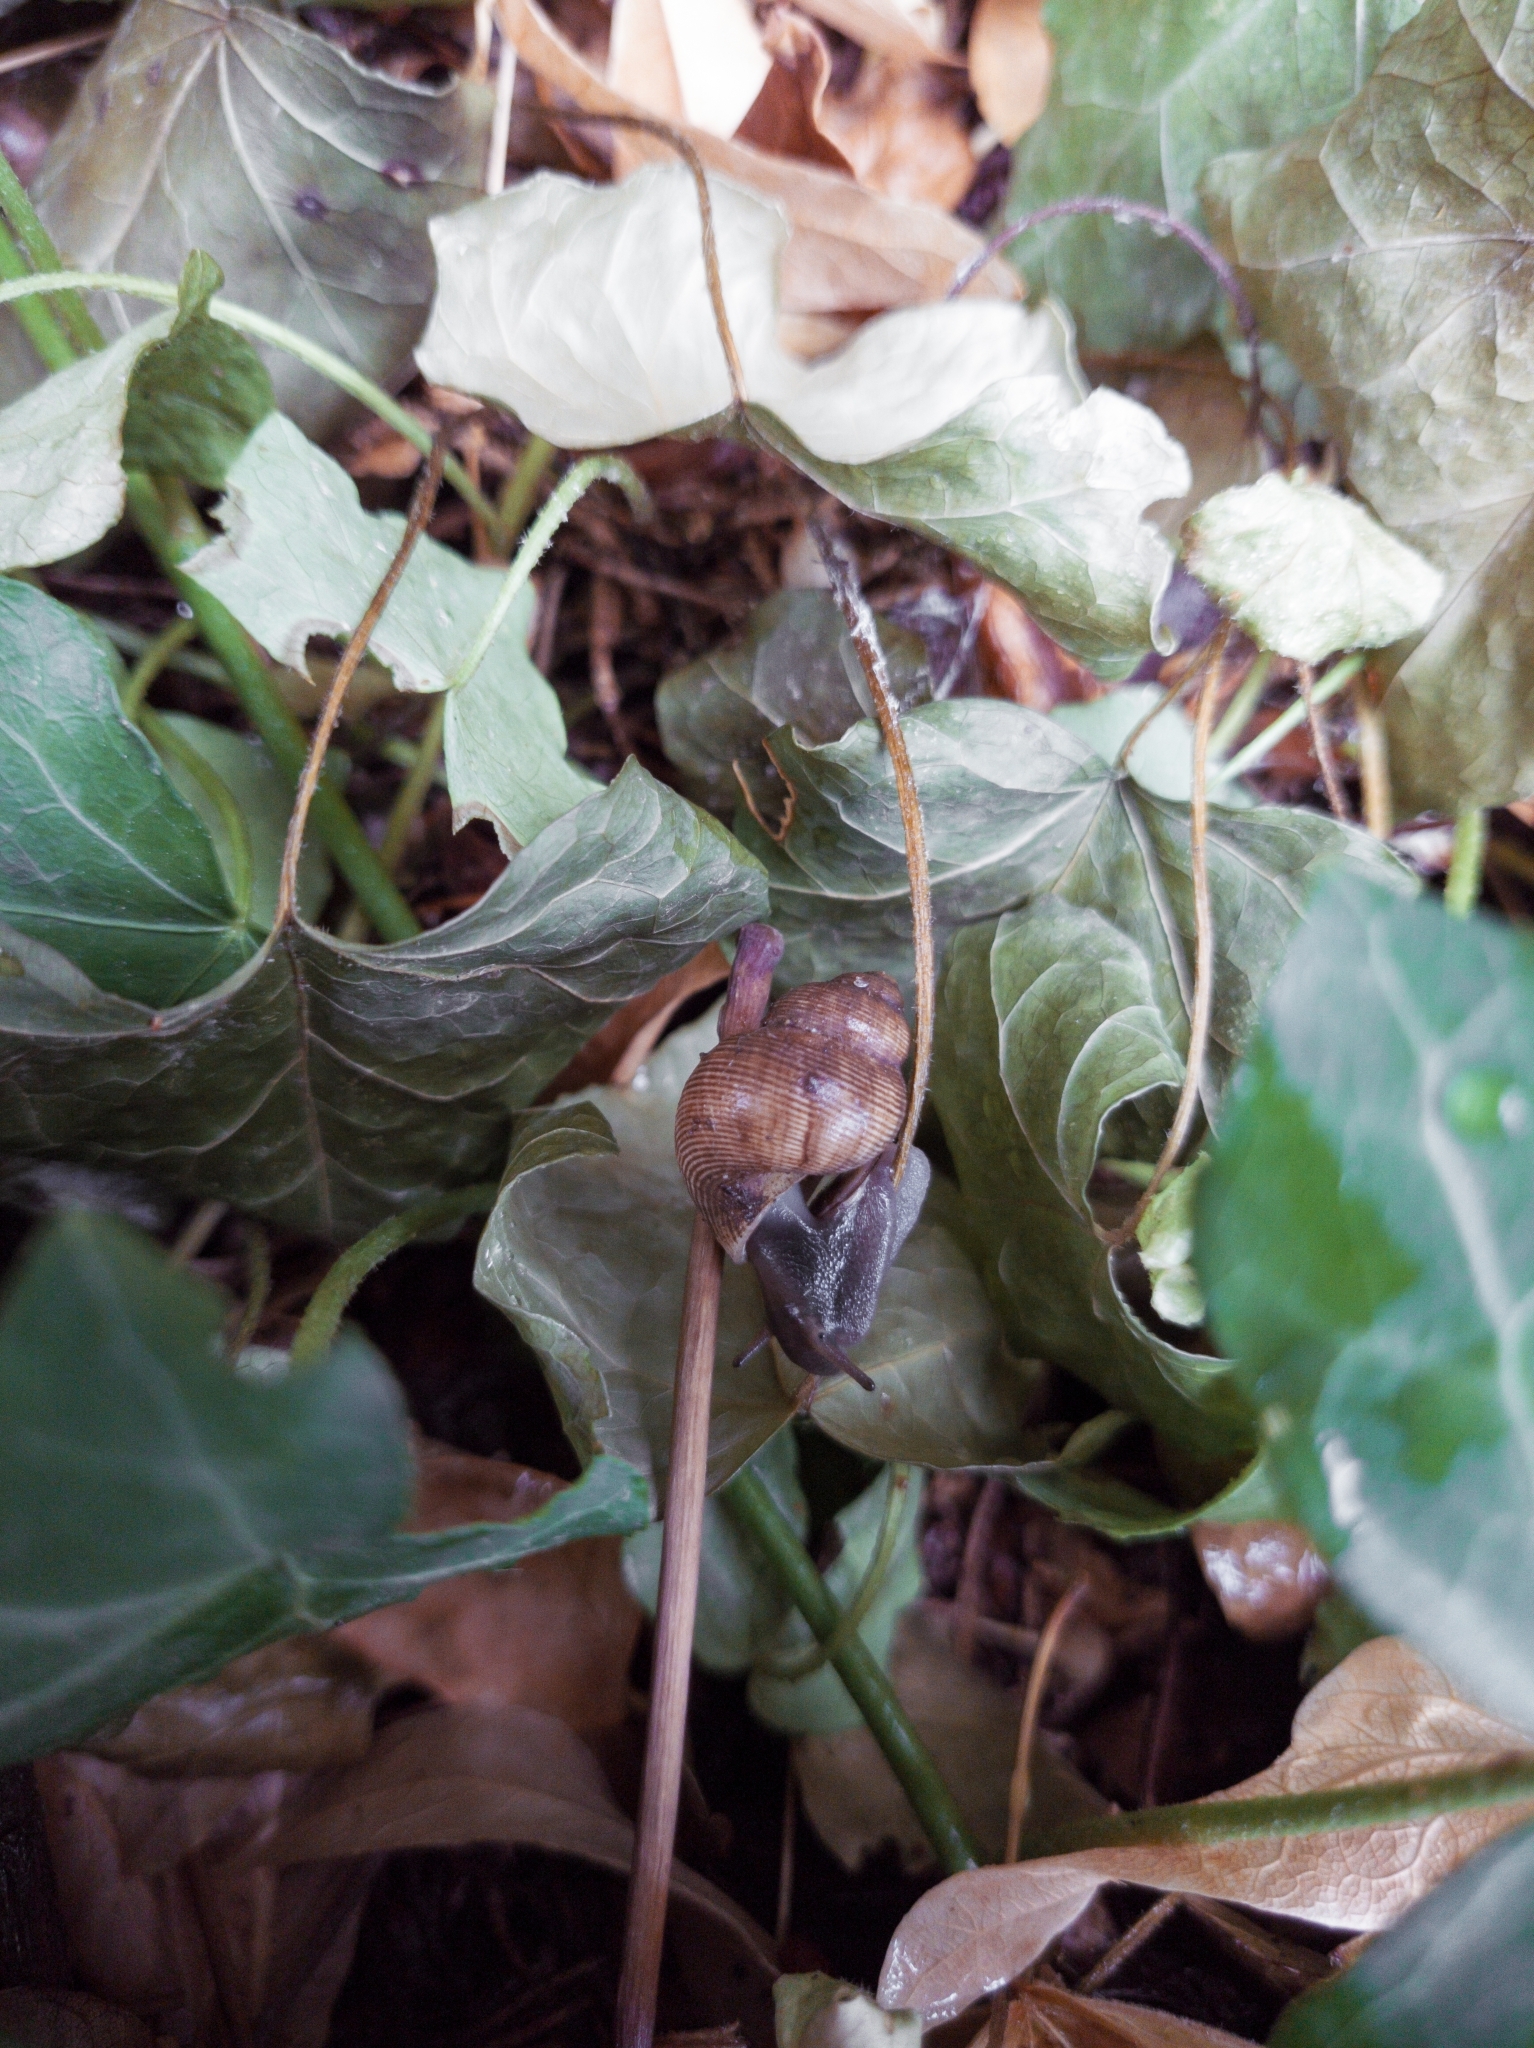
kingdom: Animalia
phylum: Mollusca
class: Gastropoda
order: Littorinimorpha
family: Pomatiidae
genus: Pomatias
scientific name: Pomatias elegans
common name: Red-mouthed snail
